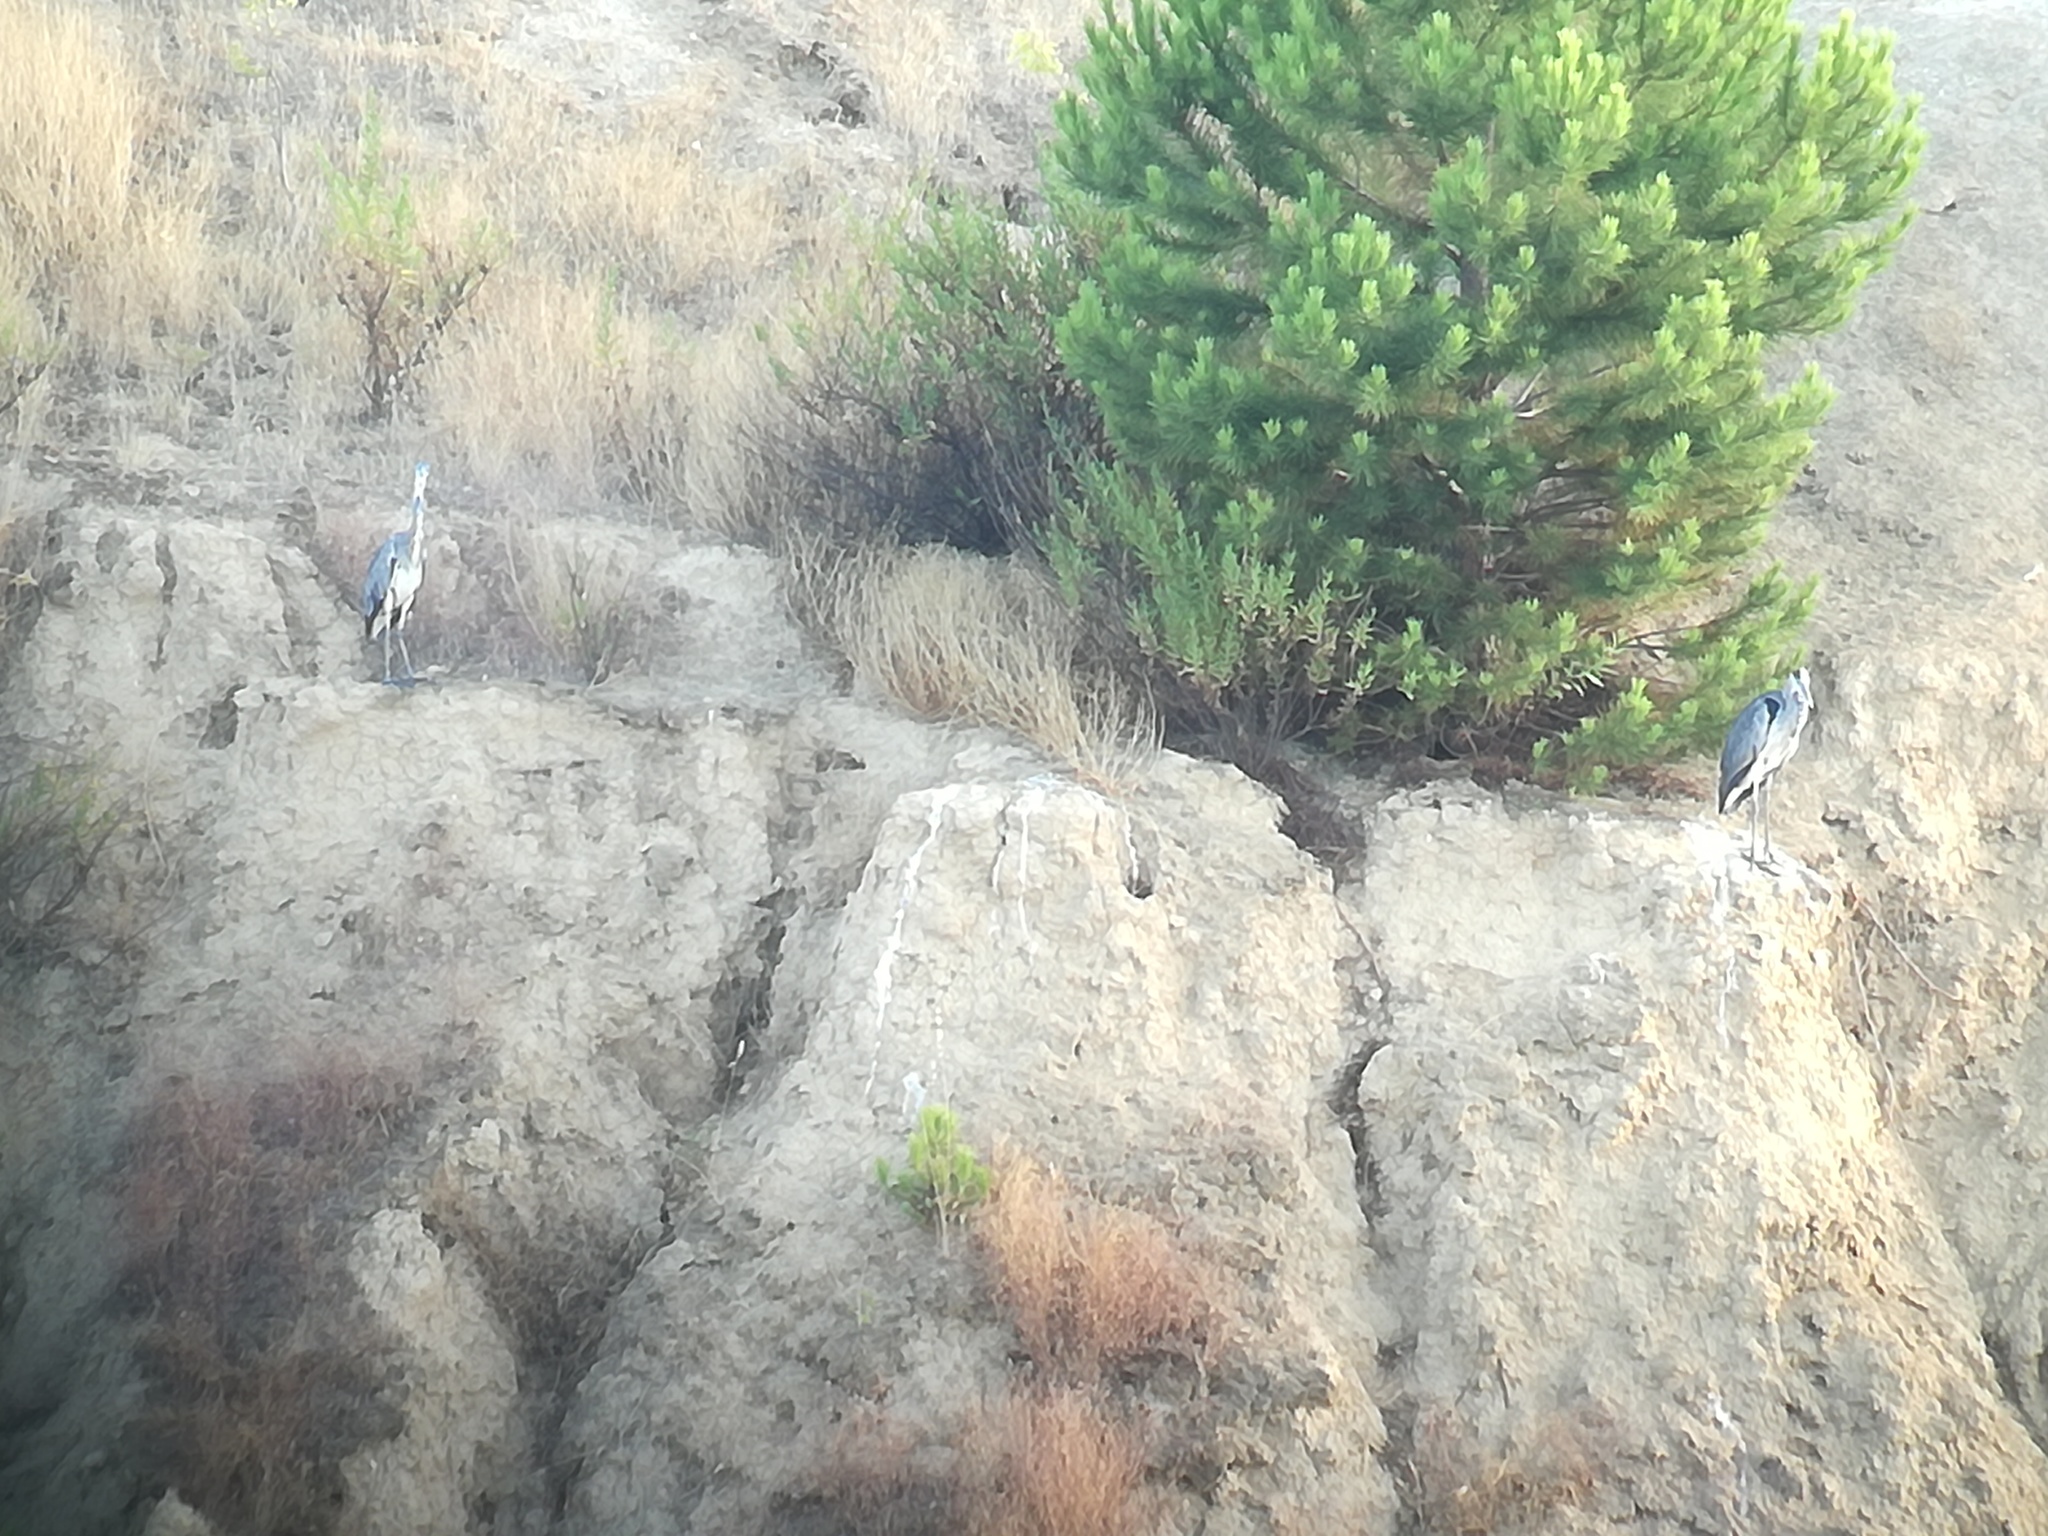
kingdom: Animalia
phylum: Chordata
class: Aves
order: Pelecaniformes
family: Ardeidae
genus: Ardea
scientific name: Ardea cinerea
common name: Grey heron
